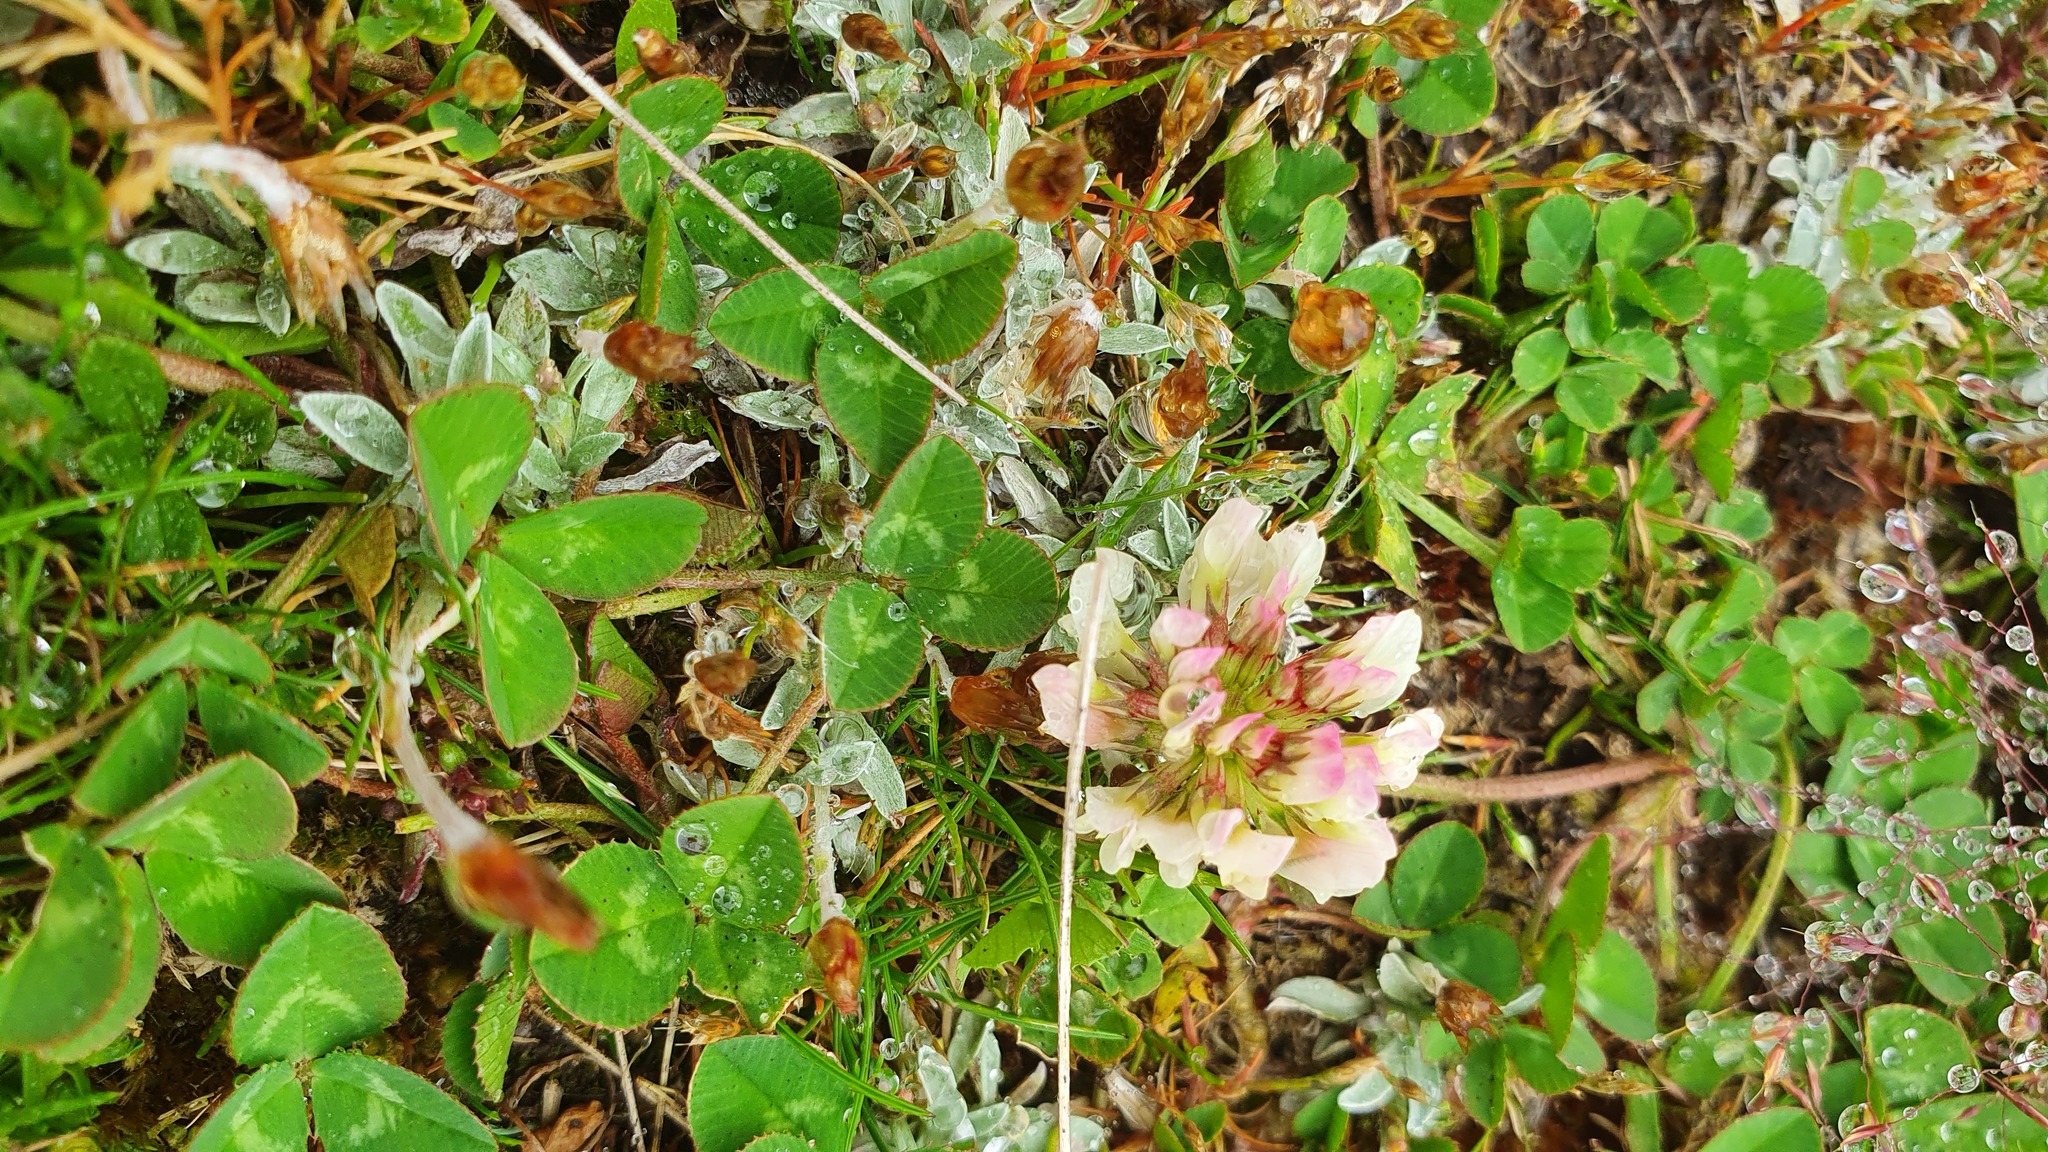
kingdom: Plantae
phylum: Tracheophyta
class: Magnoliopsida
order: Fabales
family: Fabaceae
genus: Trifolium
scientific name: Trifolium repens
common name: White clover
